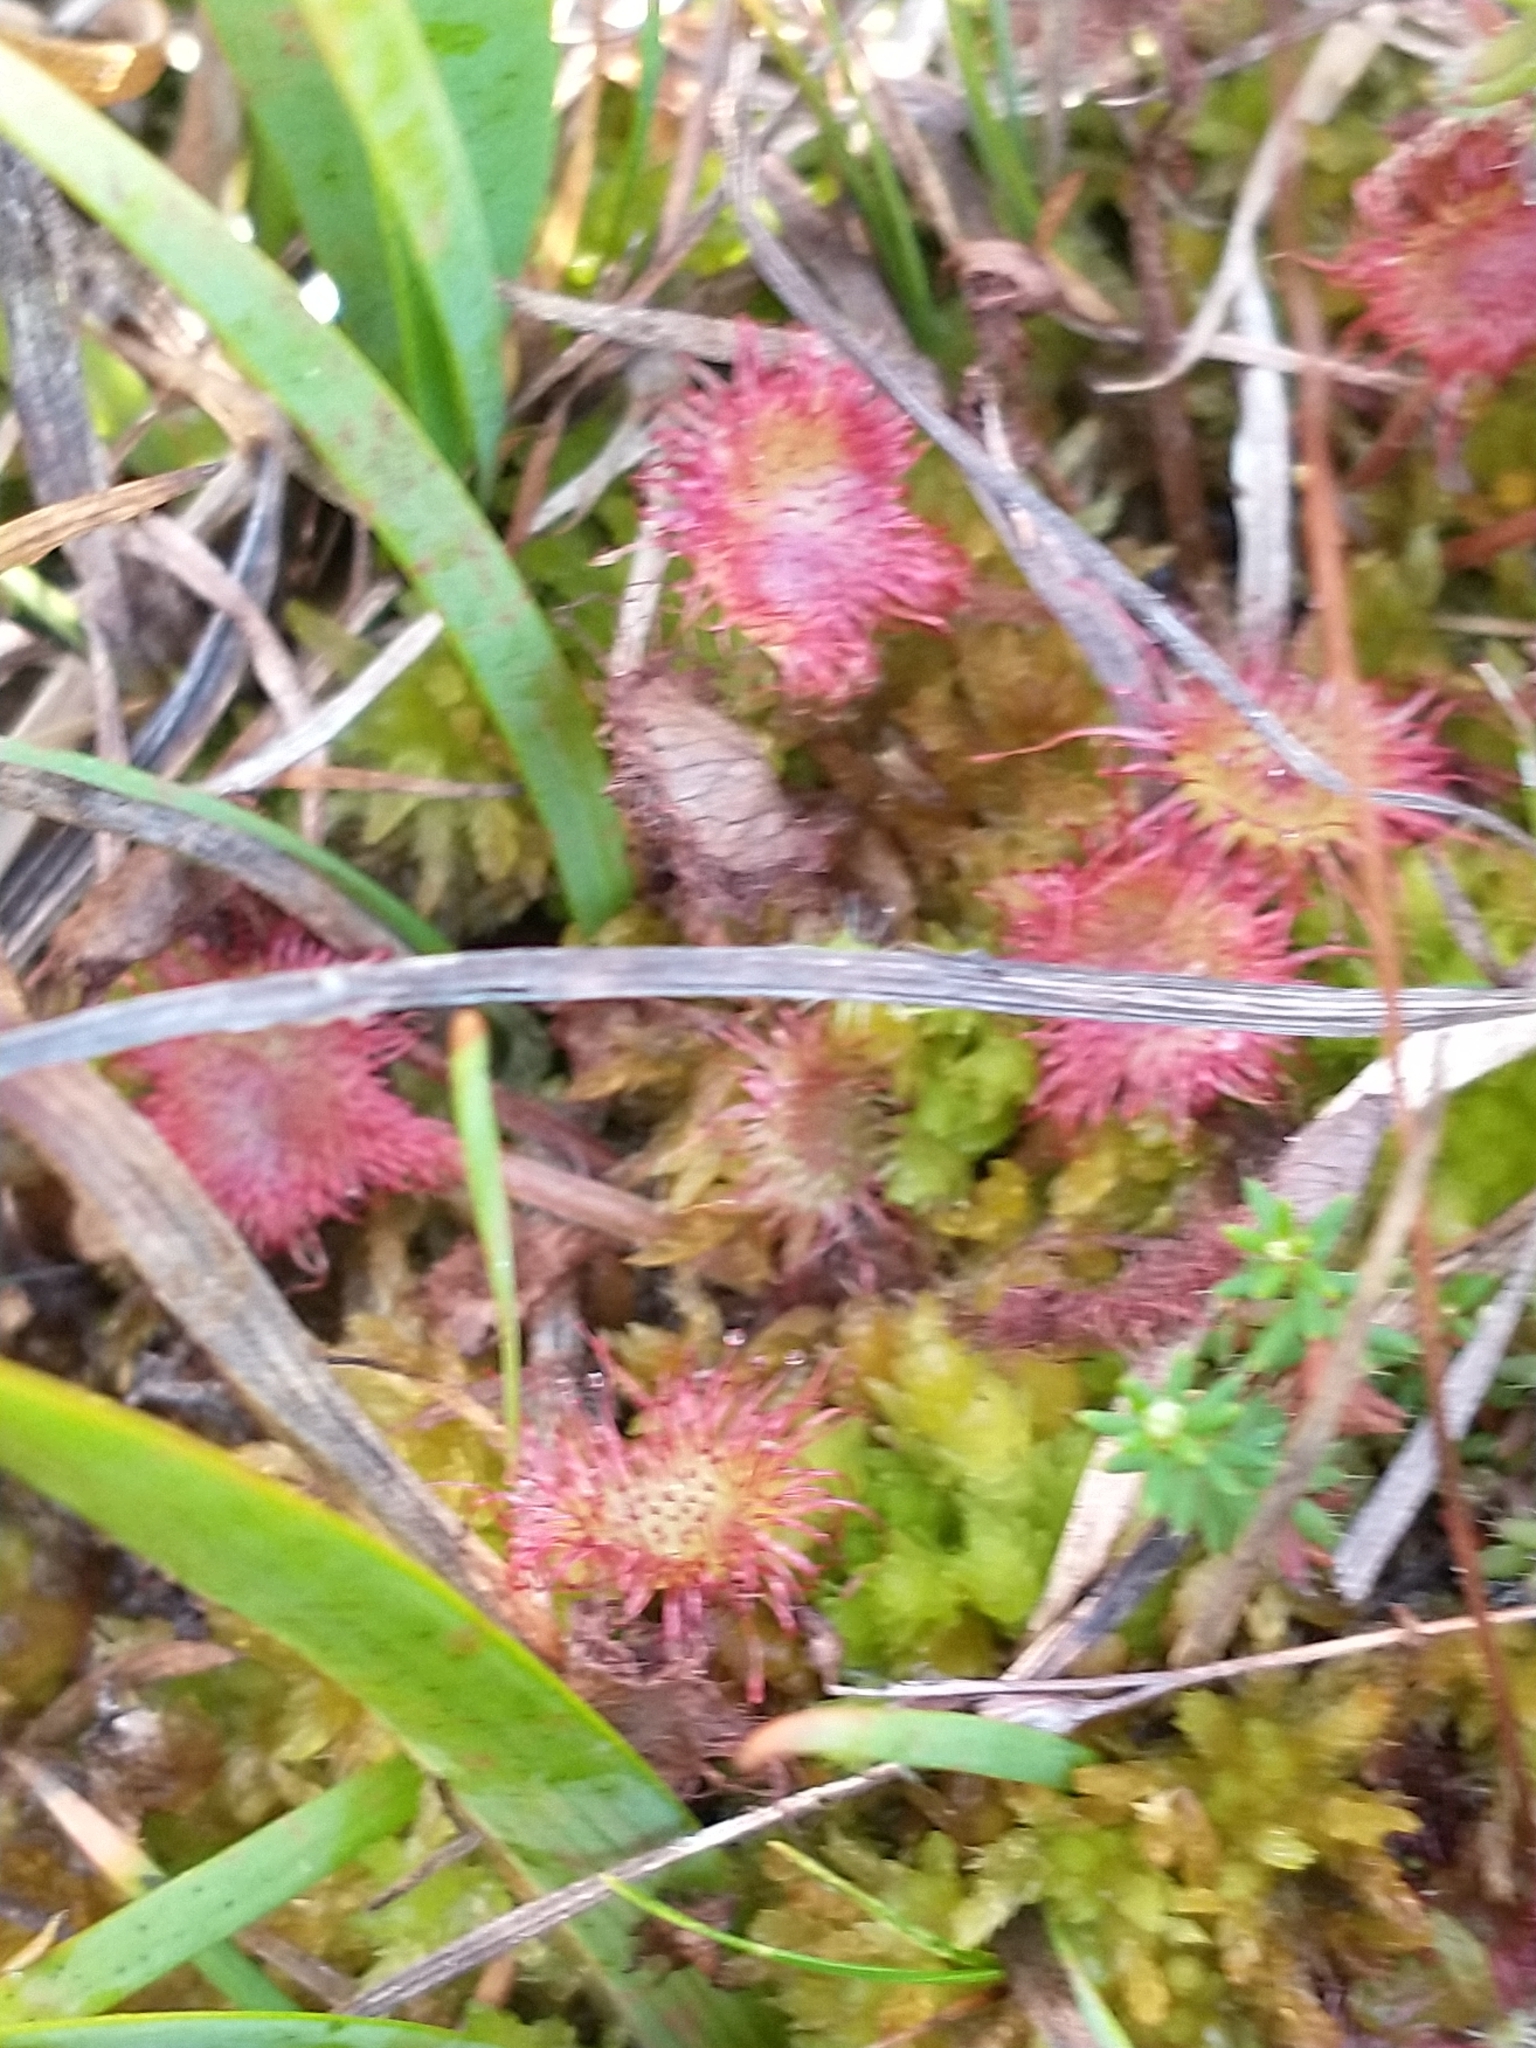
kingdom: Plantae
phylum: Tracheophyta
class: Magnoliopsida
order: Caryophyllales
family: Droseraceae
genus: Drosera
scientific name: Drosera rotundifolia
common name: Round-leaved sundew
